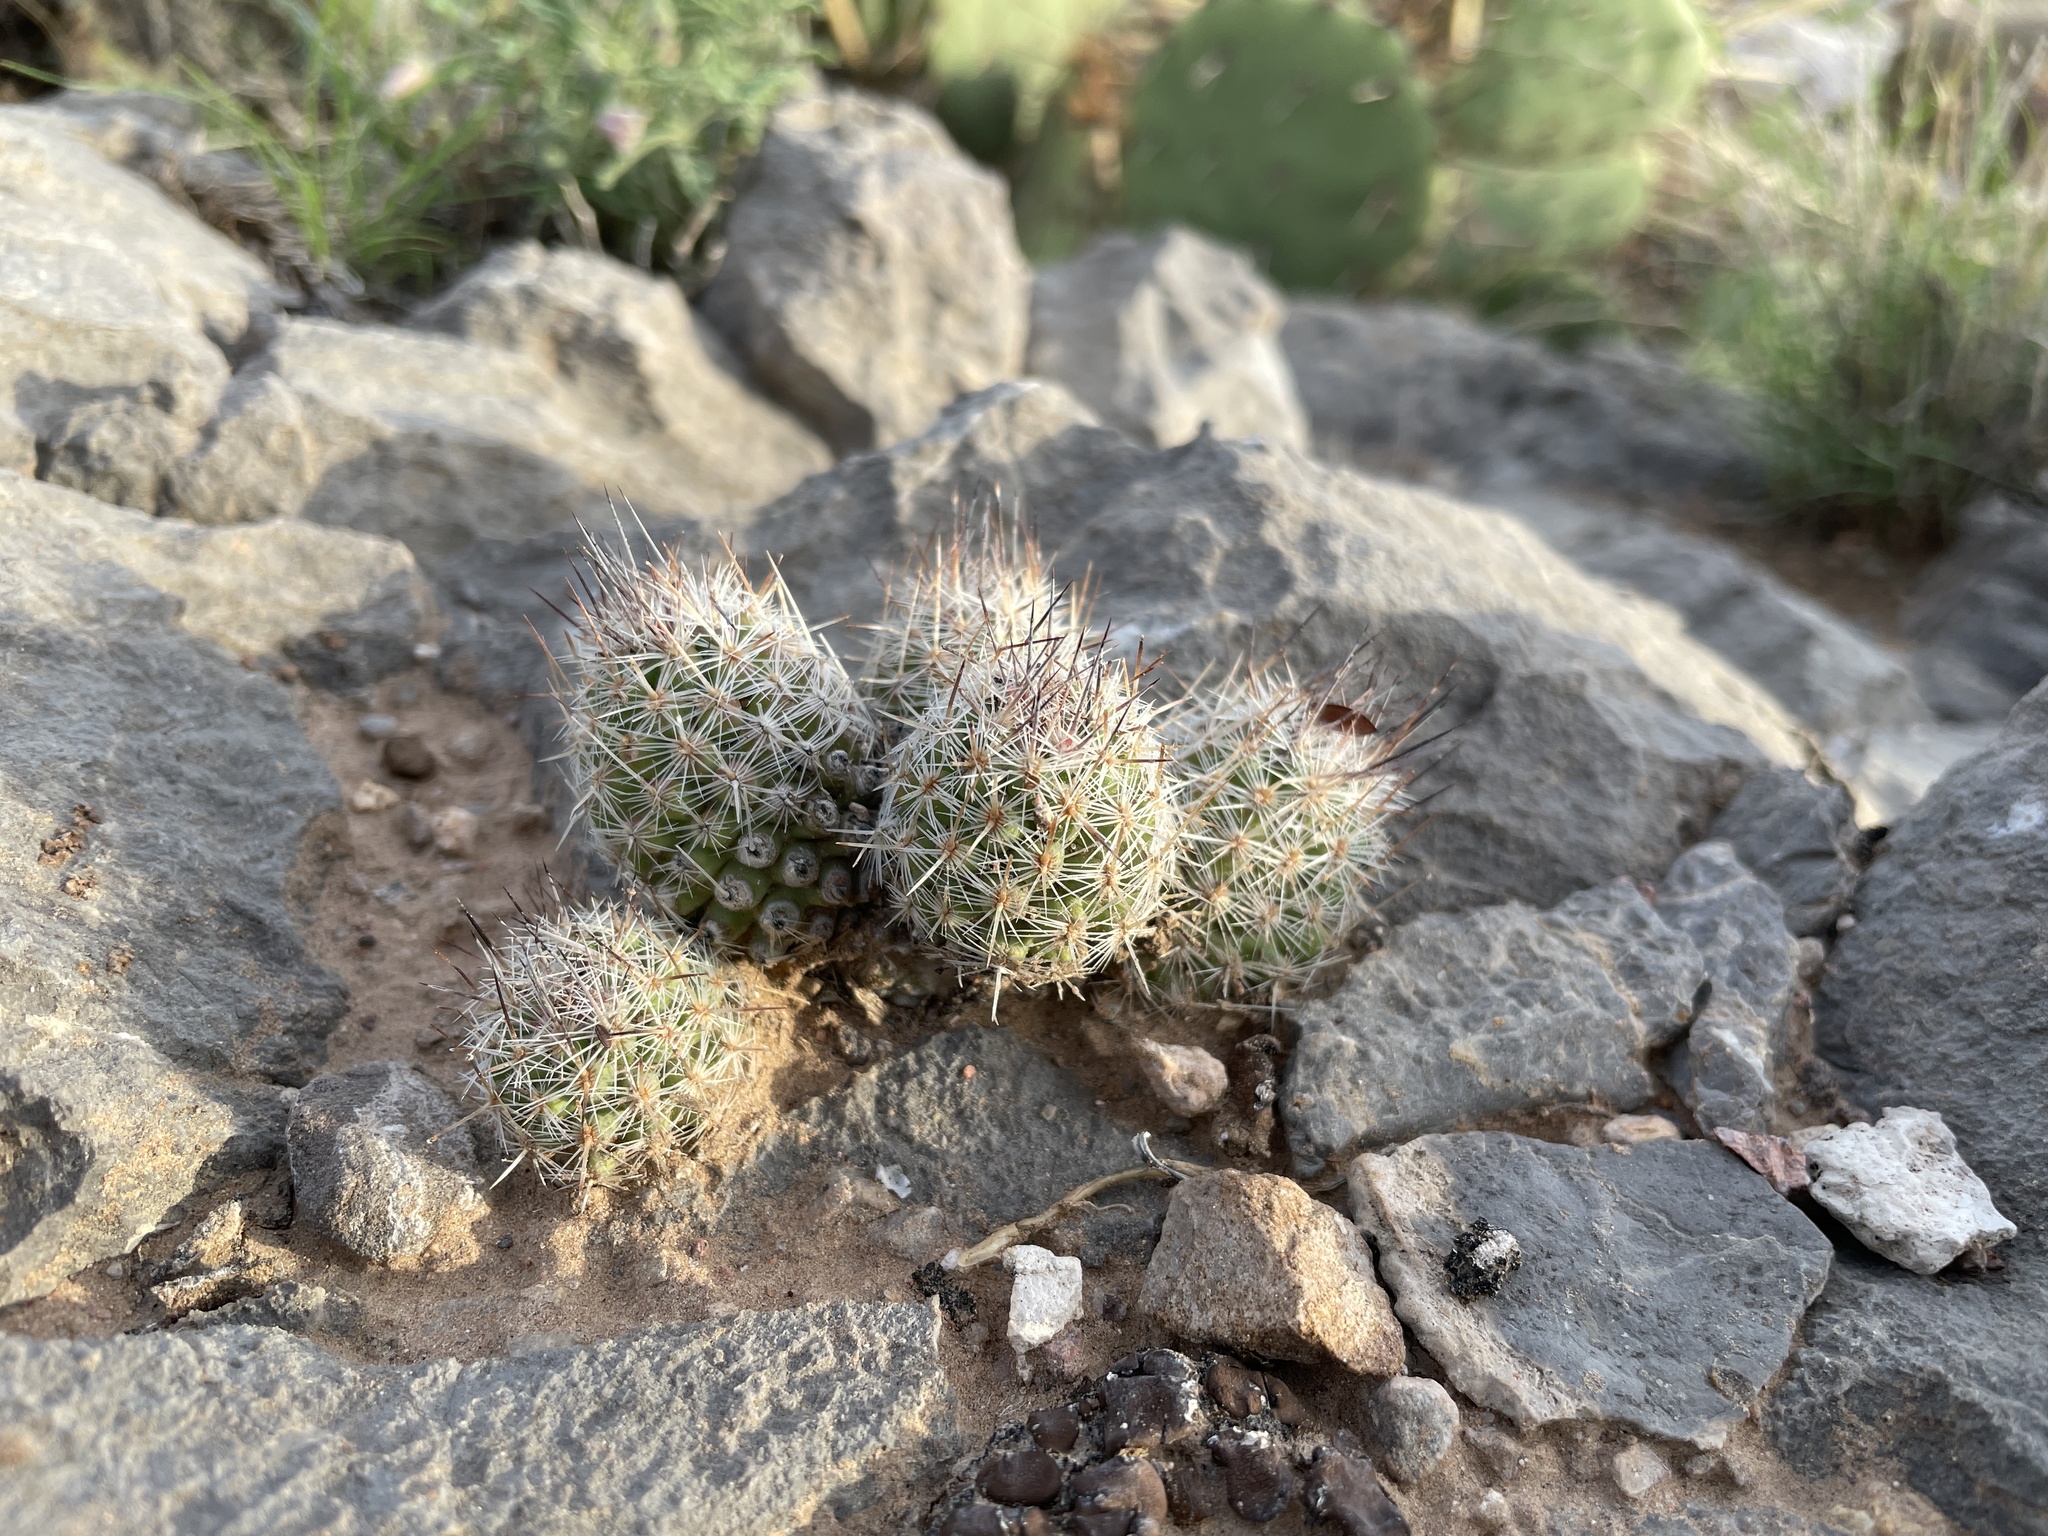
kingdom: Plantae
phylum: Tracheophyta
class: Magnoliopsida
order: Caryophyllales
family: Cactaceae
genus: Pelecyphora
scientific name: Pelecyphora tuberculosa
